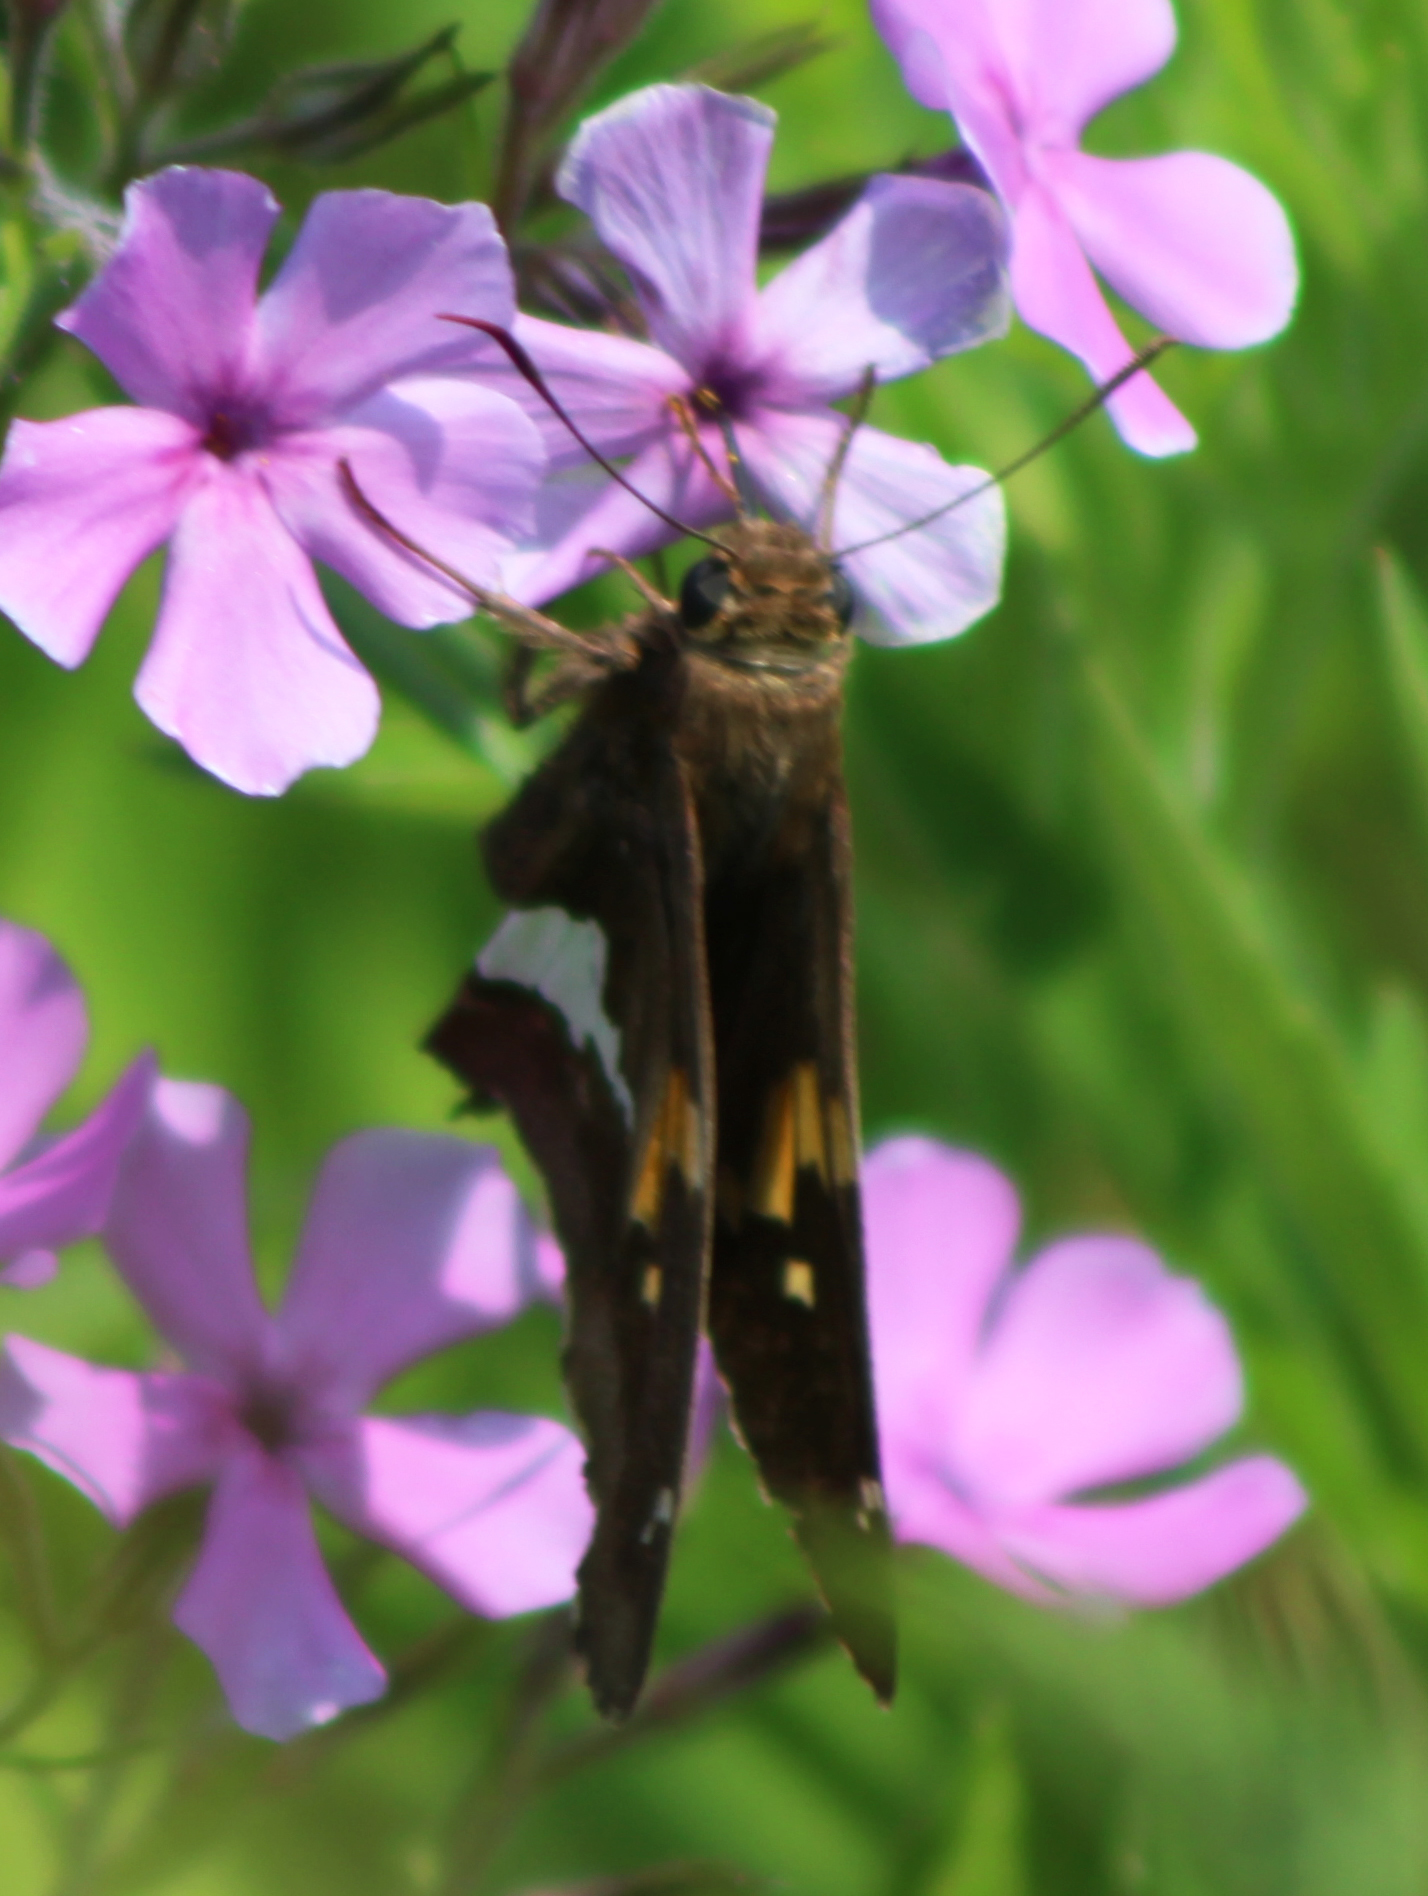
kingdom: Animalia
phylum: Arthropoda
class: Insecta
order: Lepidoptera
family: Hesperiidae
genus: Epargyreus
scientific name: Epargyreus clarus
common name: Silver-spotted skipper
